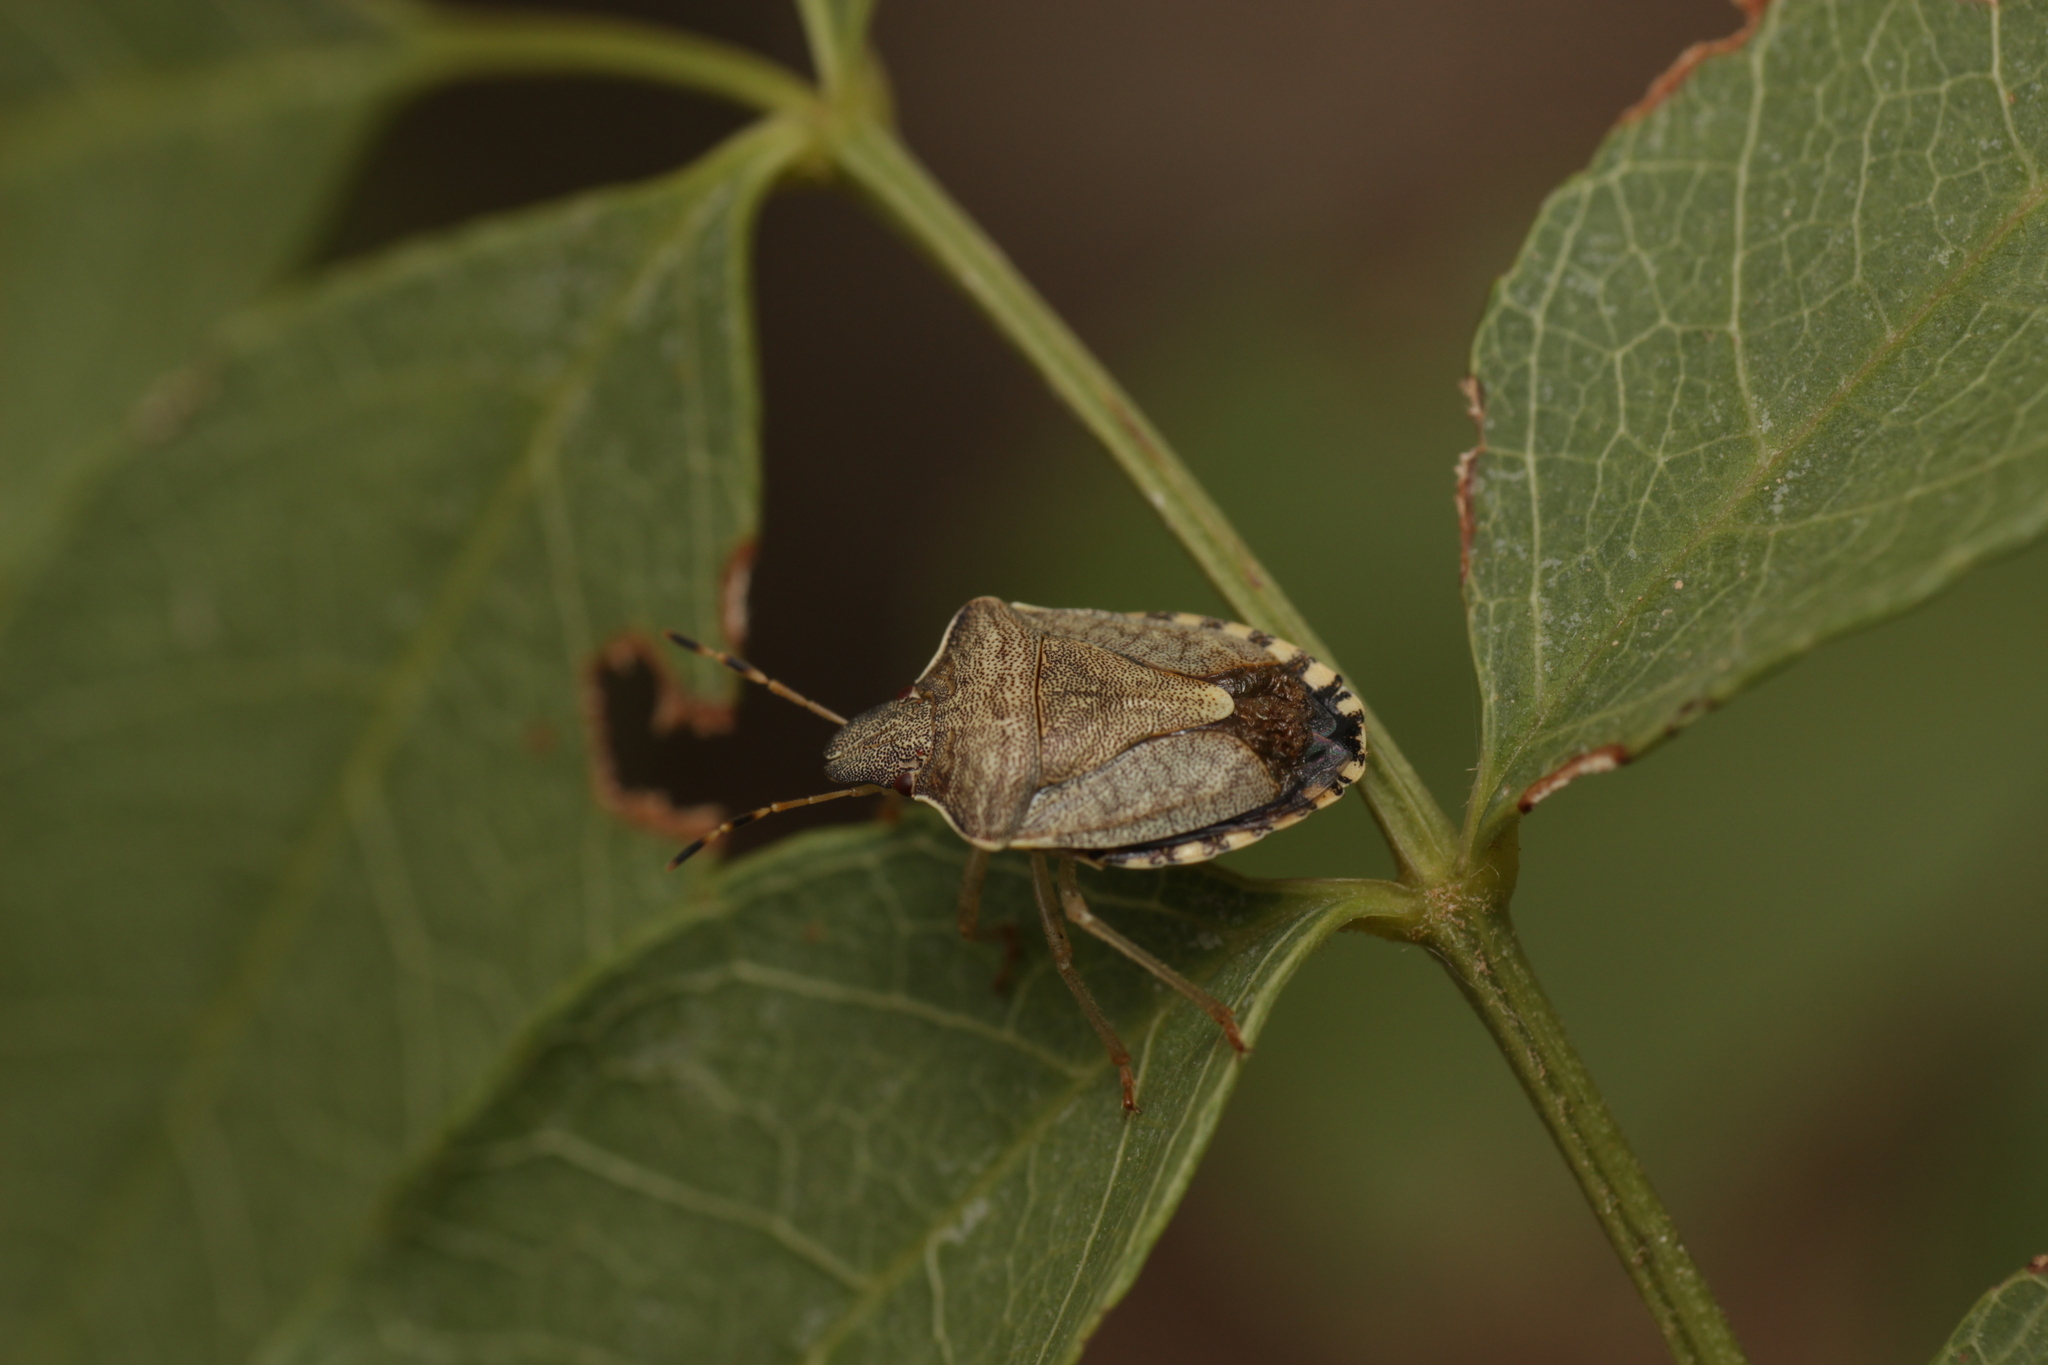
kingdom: Animalia
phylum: Arthropoda
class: Insecta
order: Hemiptera
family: Pentatomidae
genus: Holcostethus
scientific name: Holcostethus strictus
